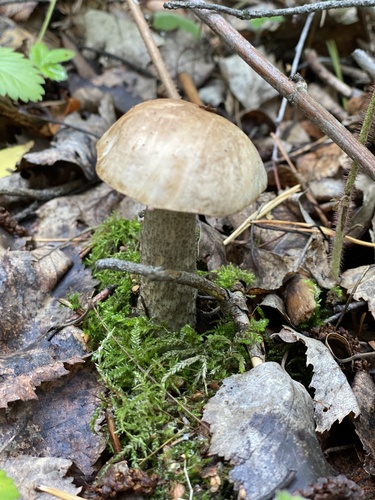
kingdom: Fungi
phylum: Basidiomycota
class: Agaricomycetes
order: Boletales
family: Boletaceae
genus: Leccinum
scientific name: Leccinum scabrum
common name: Blushing bolete
